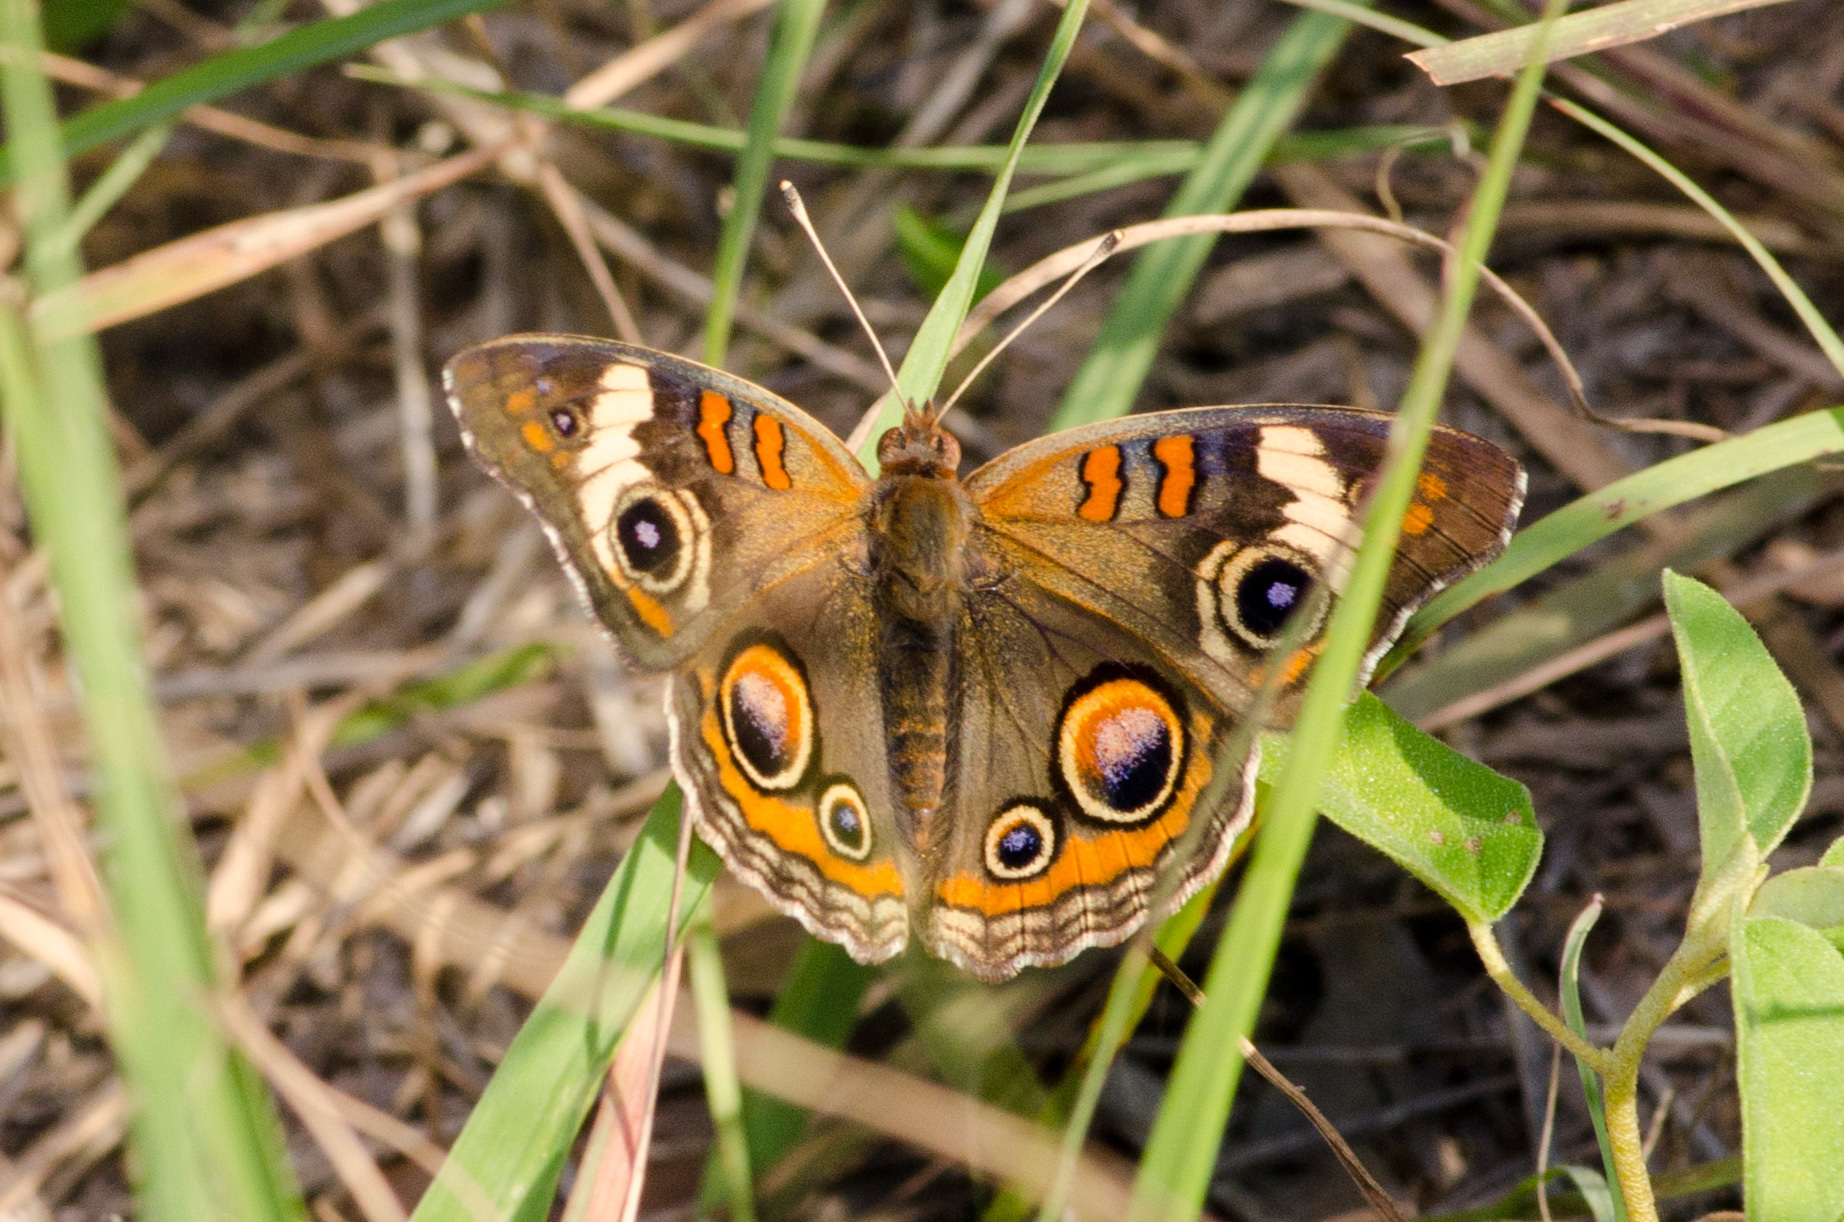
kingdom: Animalia
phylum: Arthropoda
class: Insecta
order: Lepidoptera
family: Nymphalidae
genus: Junonia
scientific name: Junonia coenia
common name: Common buckeye
